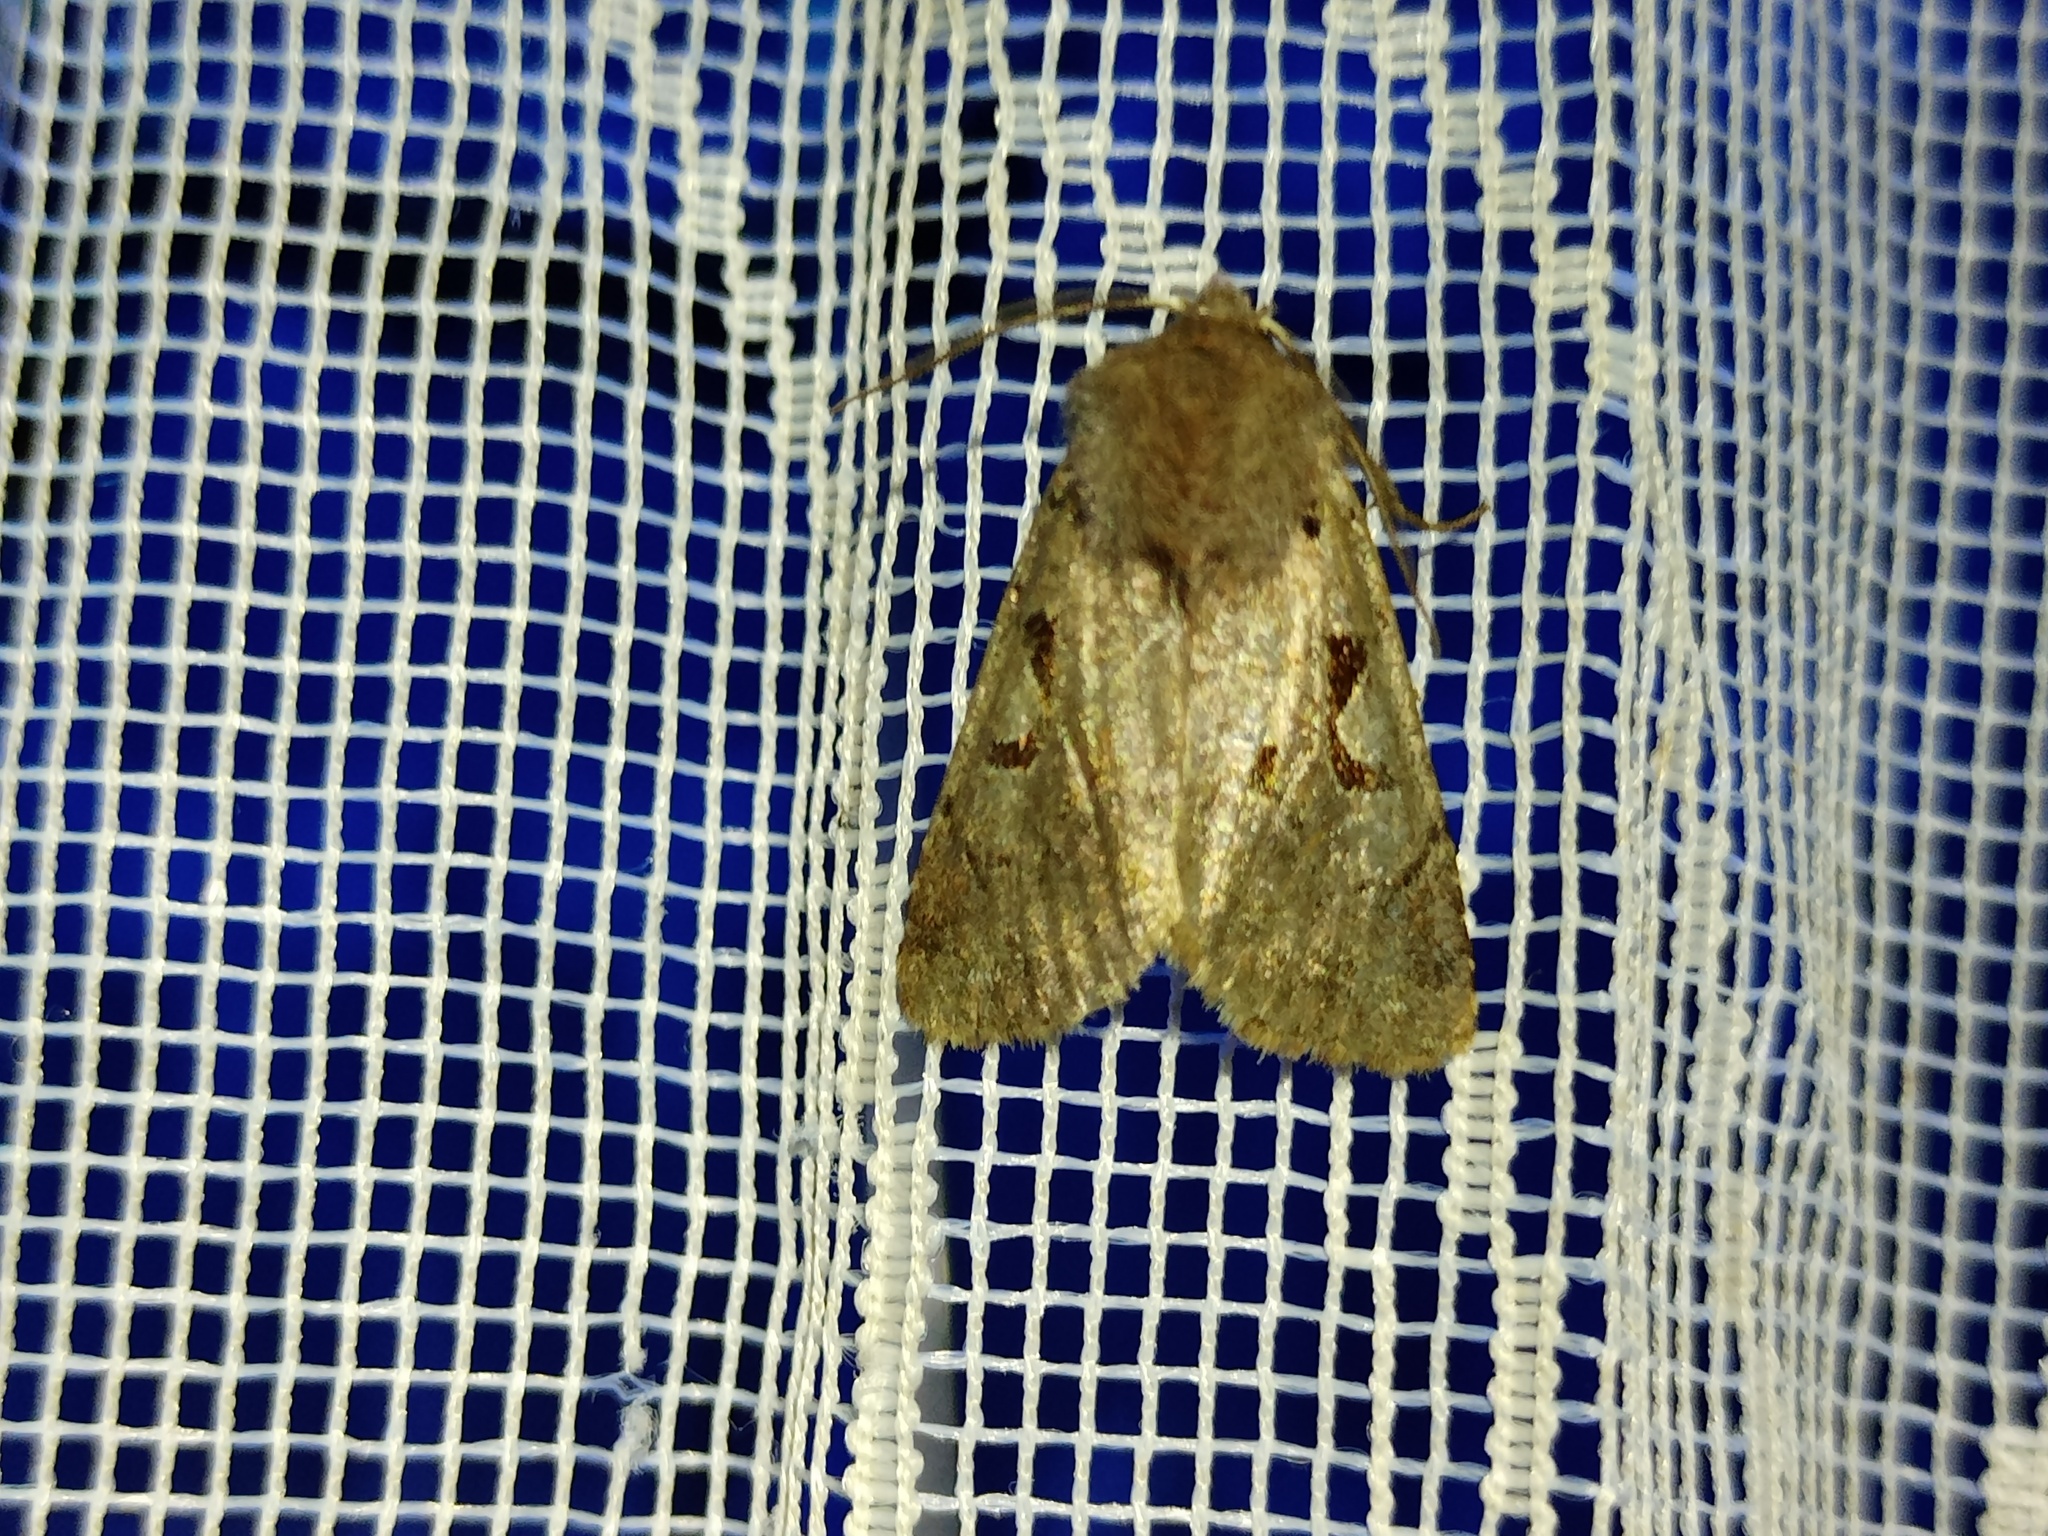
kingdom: Animalia
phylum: Arthropoda
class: Insecta
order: Lepidoptera
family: Noctuidae
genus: Orthosia
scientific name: Orthosia gothica
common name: Hebrew character
